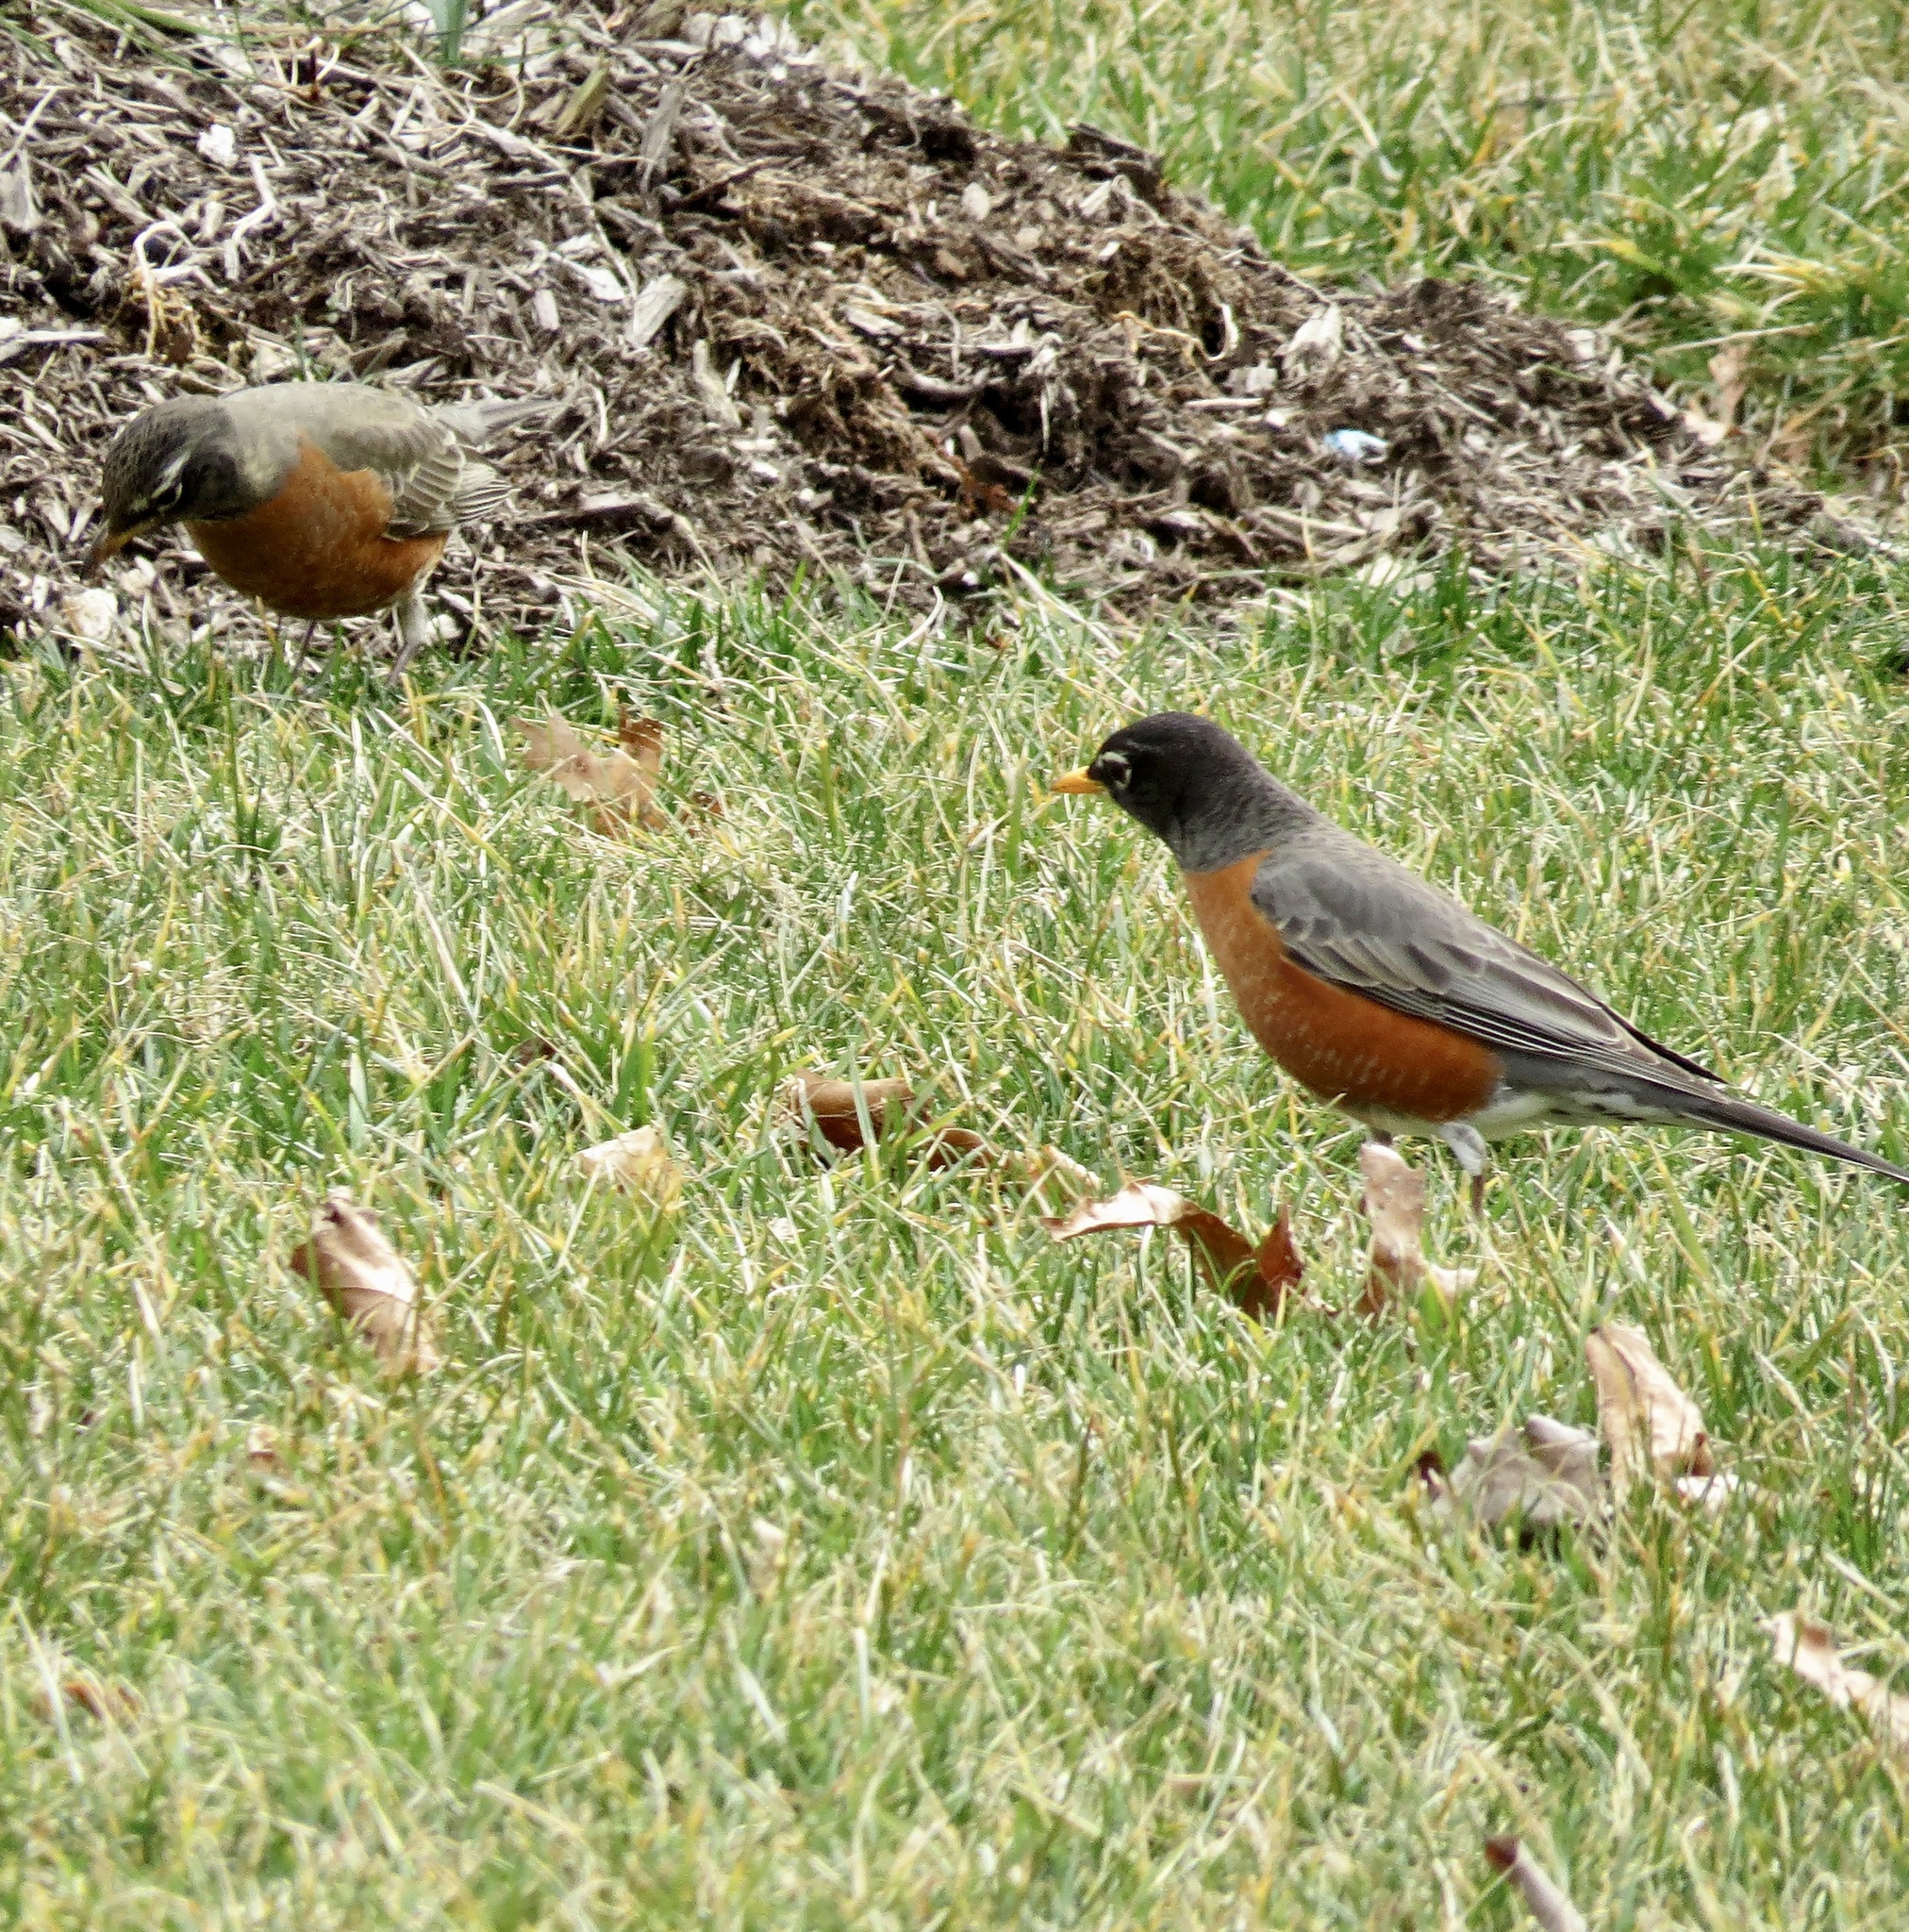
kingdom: Animalia
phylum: Chordata
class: Aves
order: Passeriformes
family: Turdidae
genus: Turdus
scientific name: Turdus migratorius
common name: American robin
